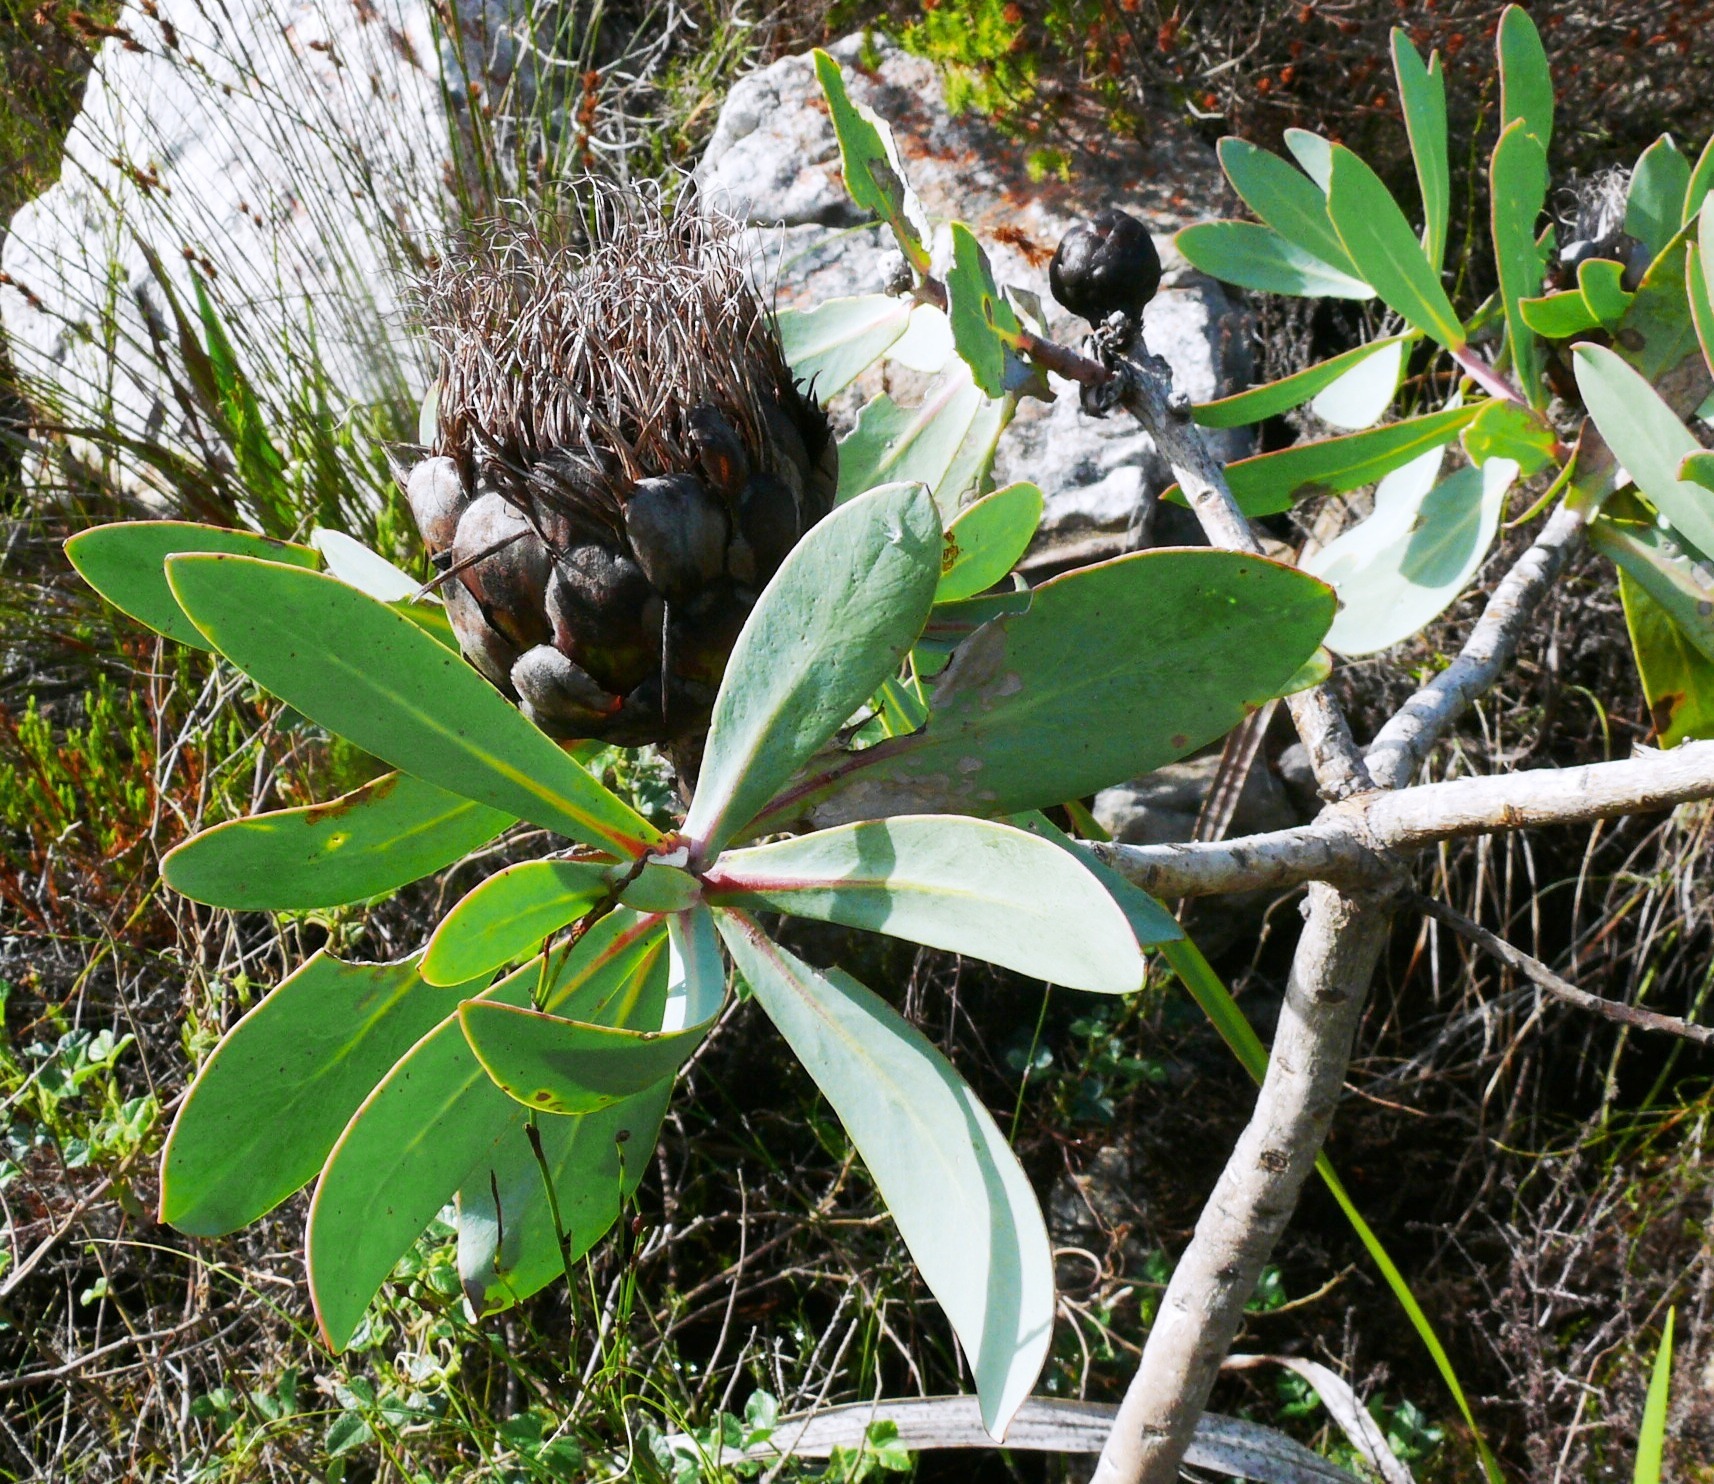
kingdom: Plantae
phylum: Tracheophyta
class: Magnoliopsida
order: Proteales
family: Proteaceae
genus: Protea
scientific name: Protea nitida
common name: Tree protea
